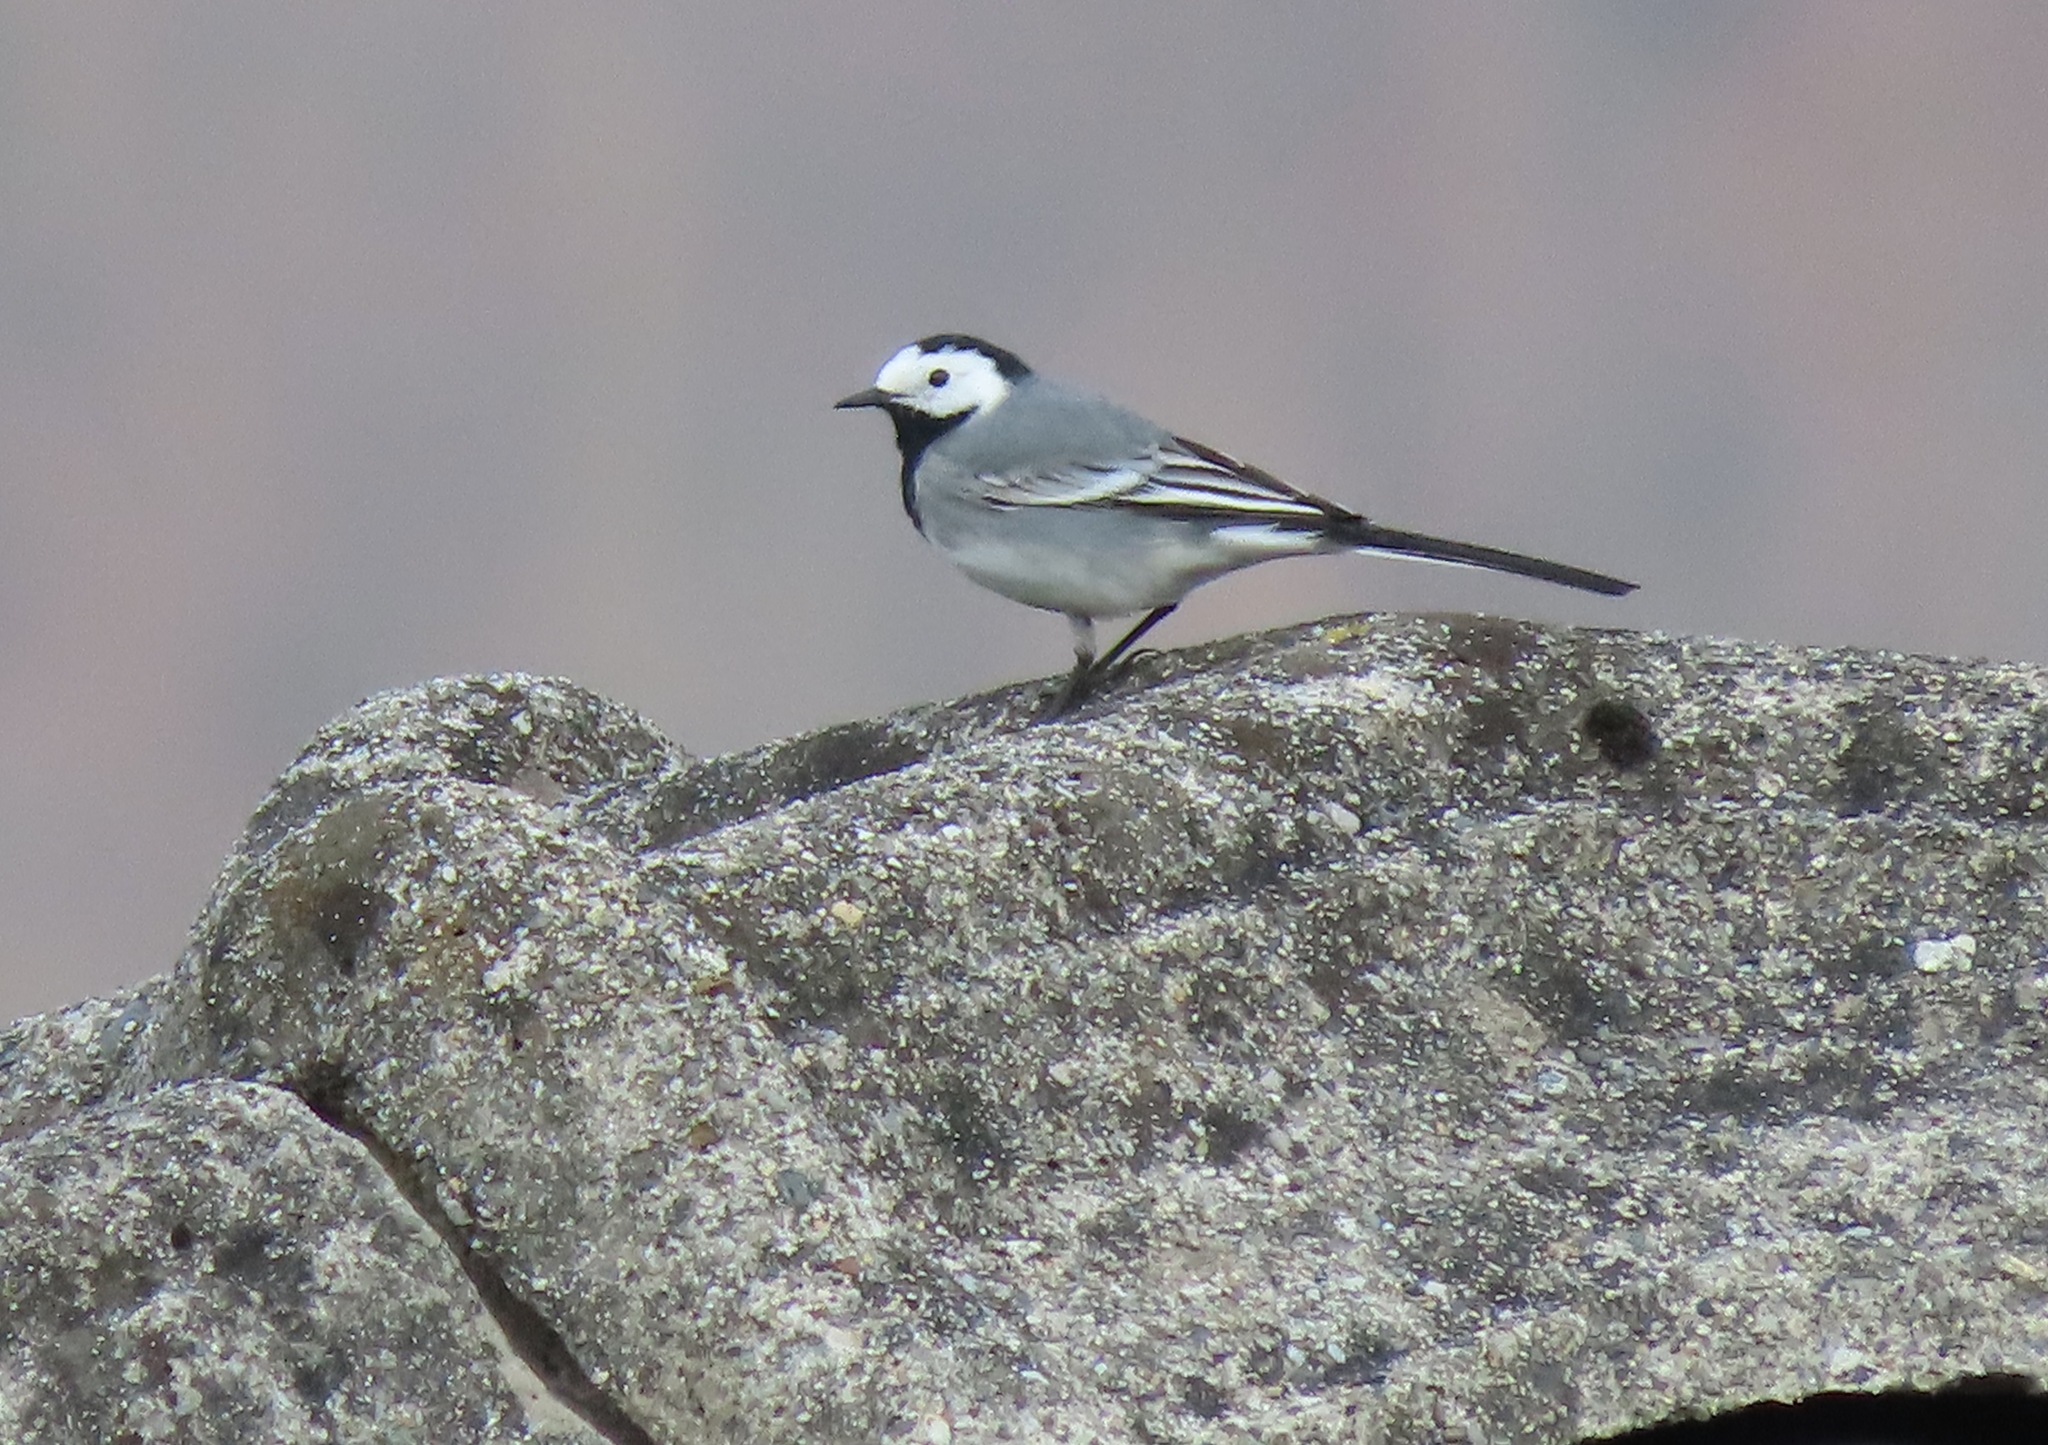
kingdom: Animalia
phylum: Chordata
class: Aves
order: Passeriformes
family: Motacillidae
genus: Motacilla
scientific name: Motacilla alba
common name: White wagtail
